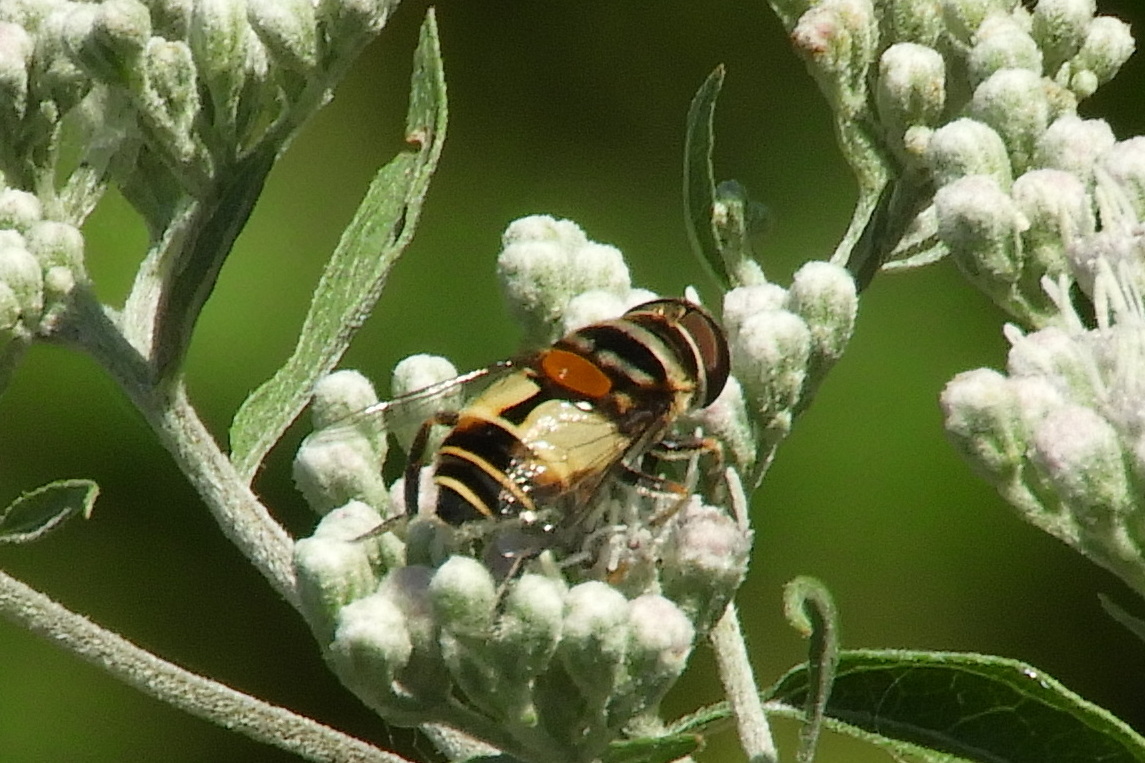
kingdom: Animalia
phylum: Arthropoda
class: Insecta
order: Diptera
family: Syrphidae
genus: Palpada
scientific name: Palpada albifrons
